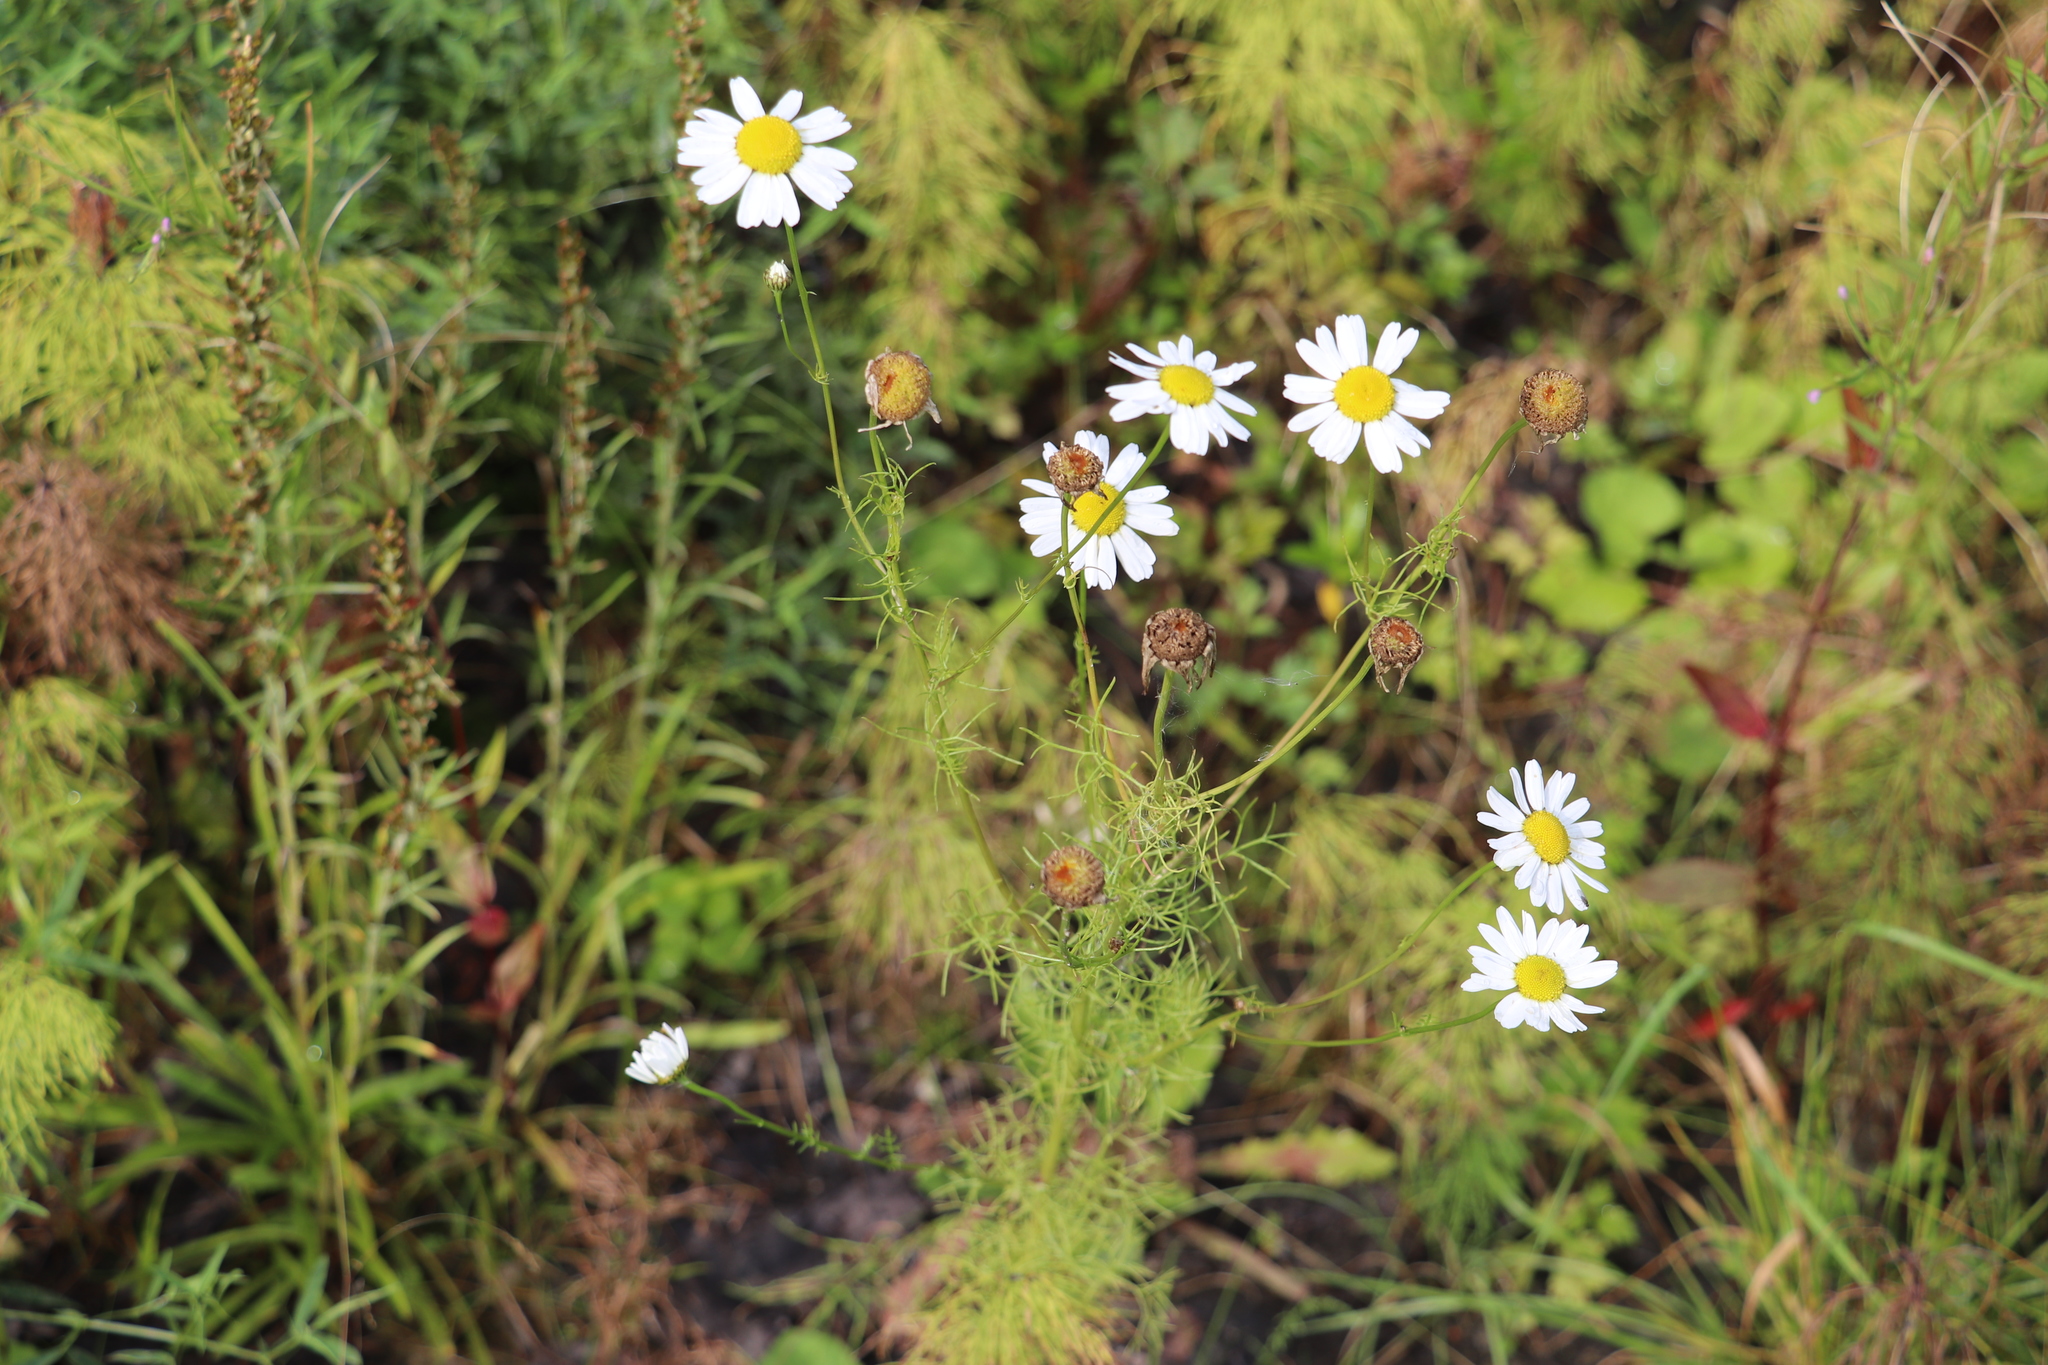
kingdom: Plantae
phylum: Tracheophyta
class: Magnoliopsida
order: Asterales
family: Asteraceae
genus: Tripleurospermum
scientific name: Tripleurospermum inodorum
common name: Scentless mayweed
